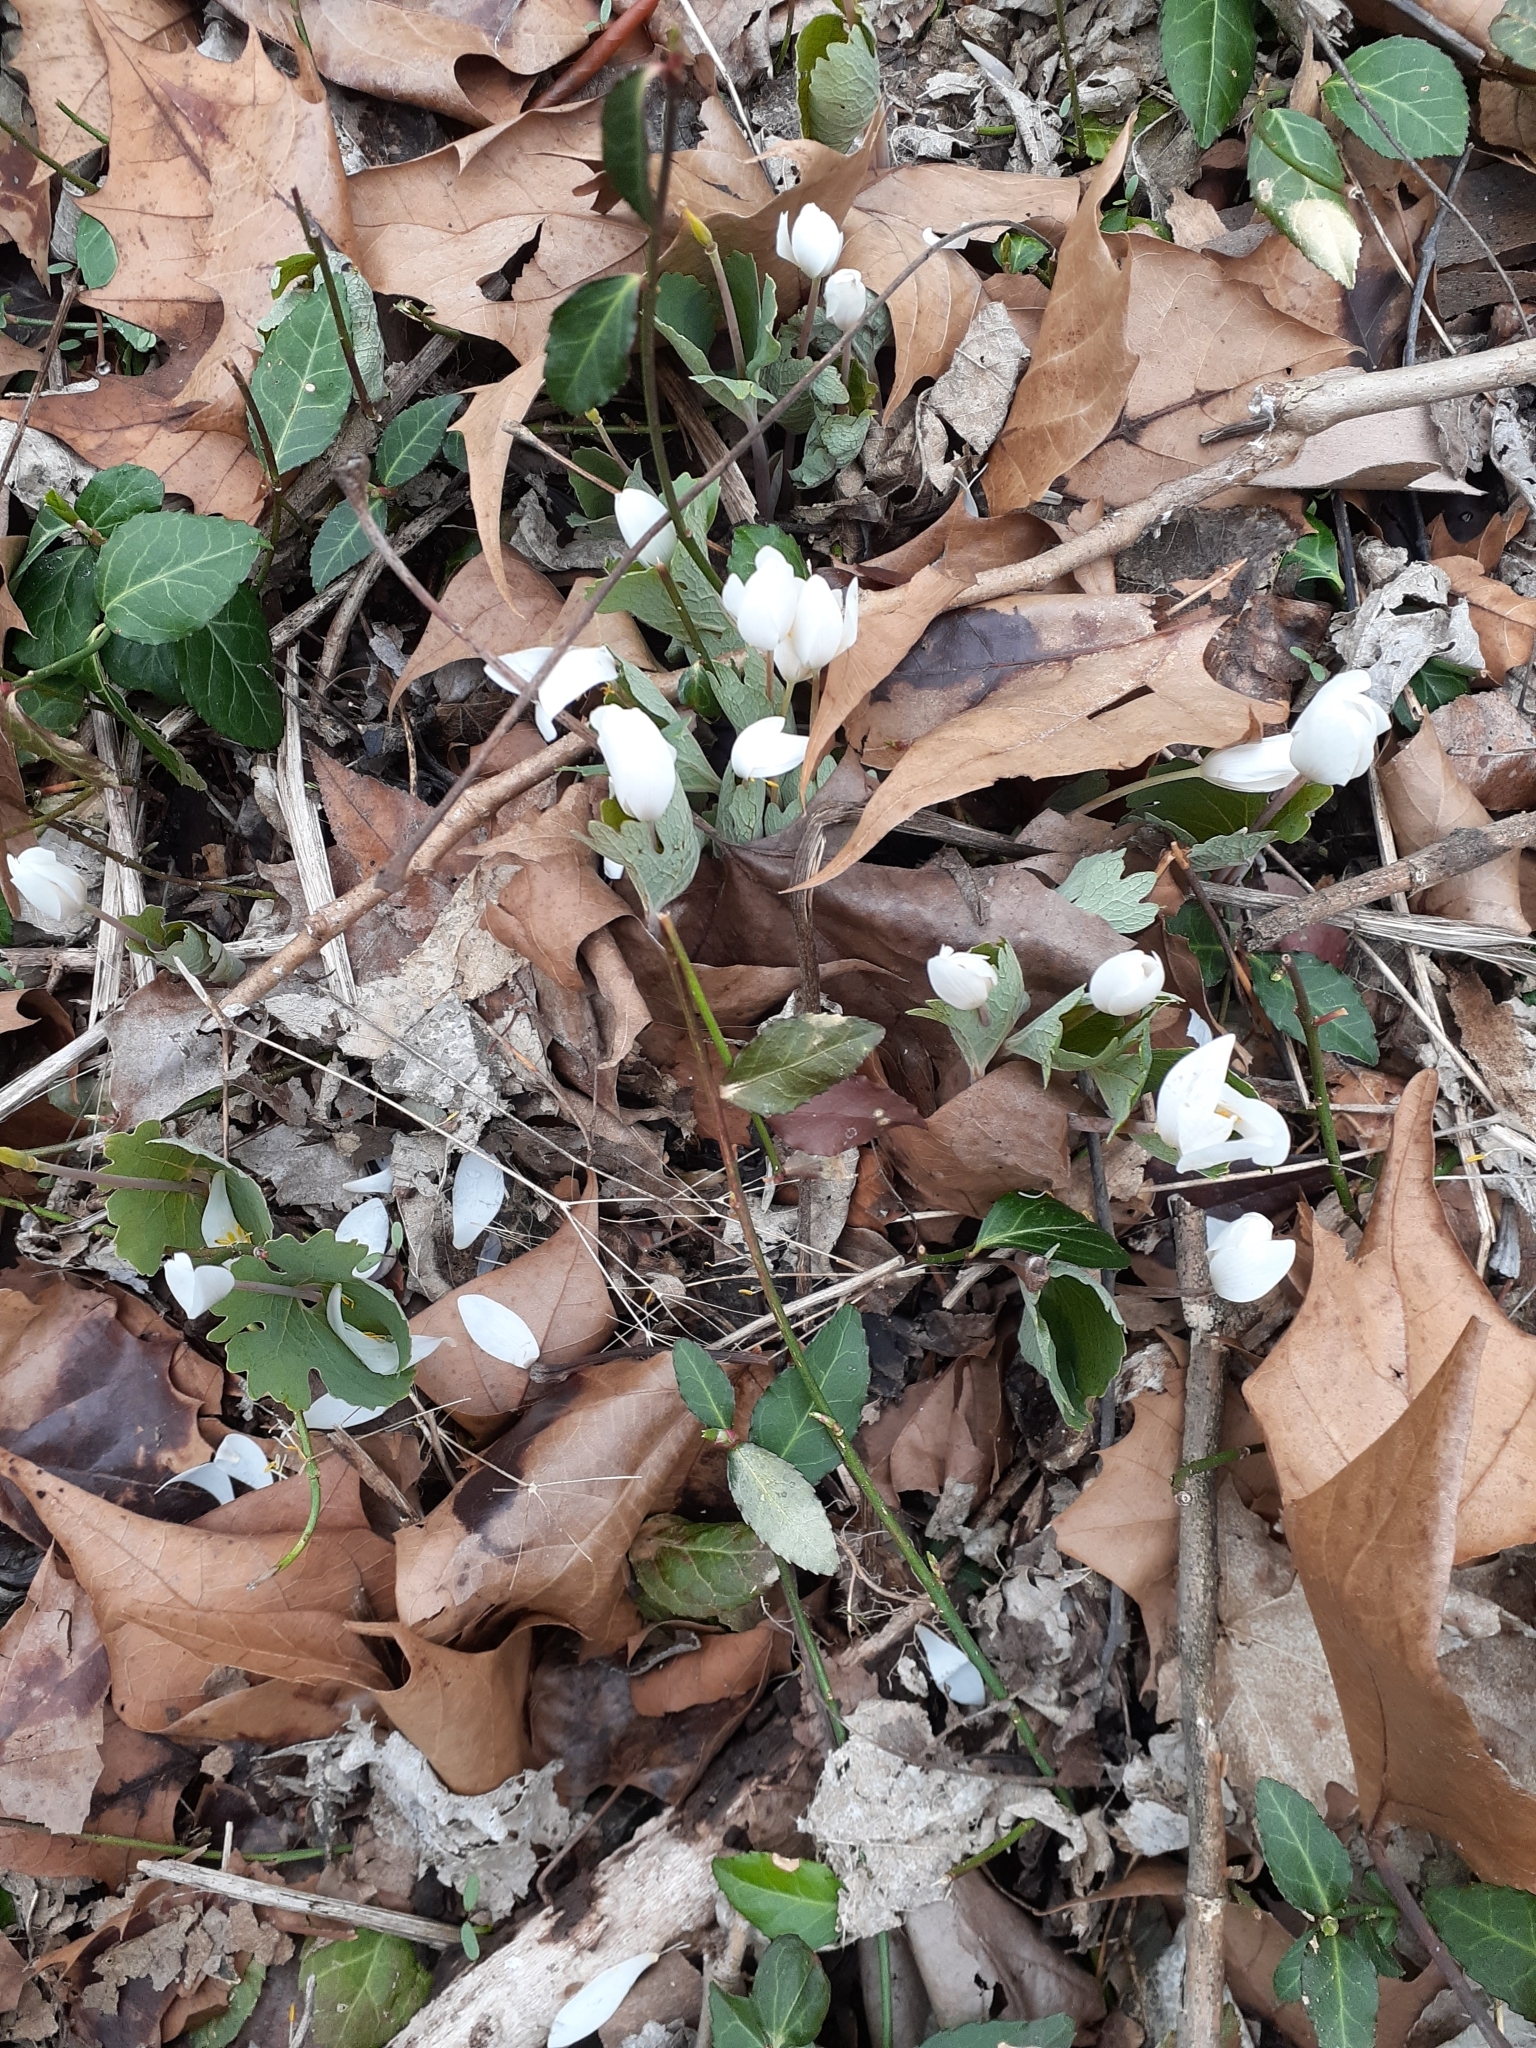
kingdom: Plantae
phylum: Tracheophyta
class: Magnoliopsida
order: Ranunculales
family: Papaveraceae
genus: Sanguinaria
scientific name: Sanguinaria canadensis
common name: Bloodroot
